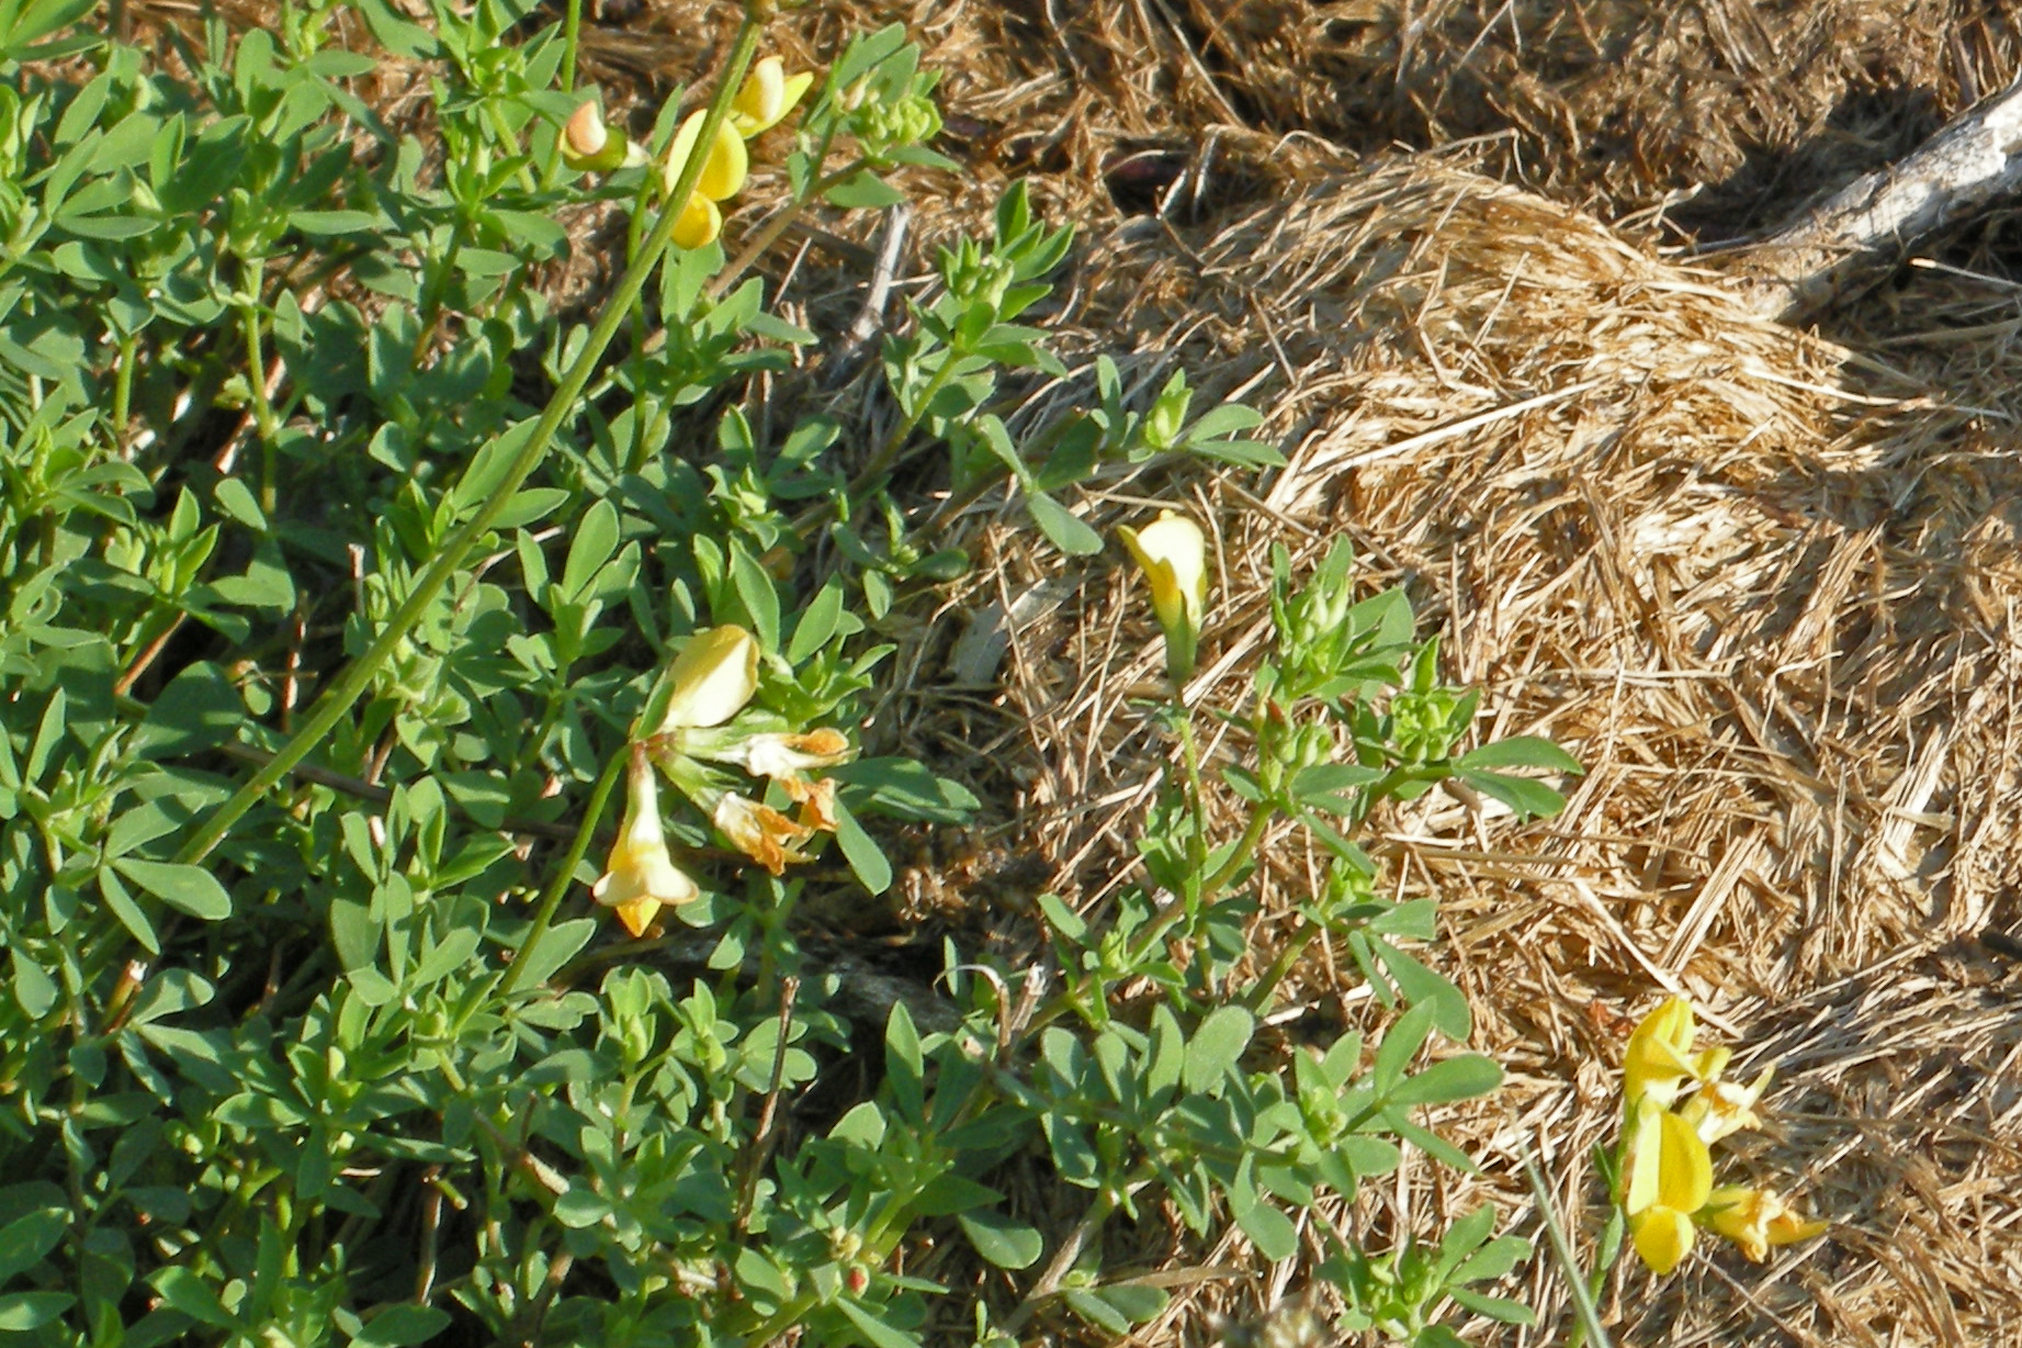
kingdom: Plantae
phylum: Tracheophyta
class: Magnoliopsida
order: Fabales
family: Fabaceae
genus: Lotus
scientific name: Lotus corniculatus
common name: Common bird's-foot-trefoil
